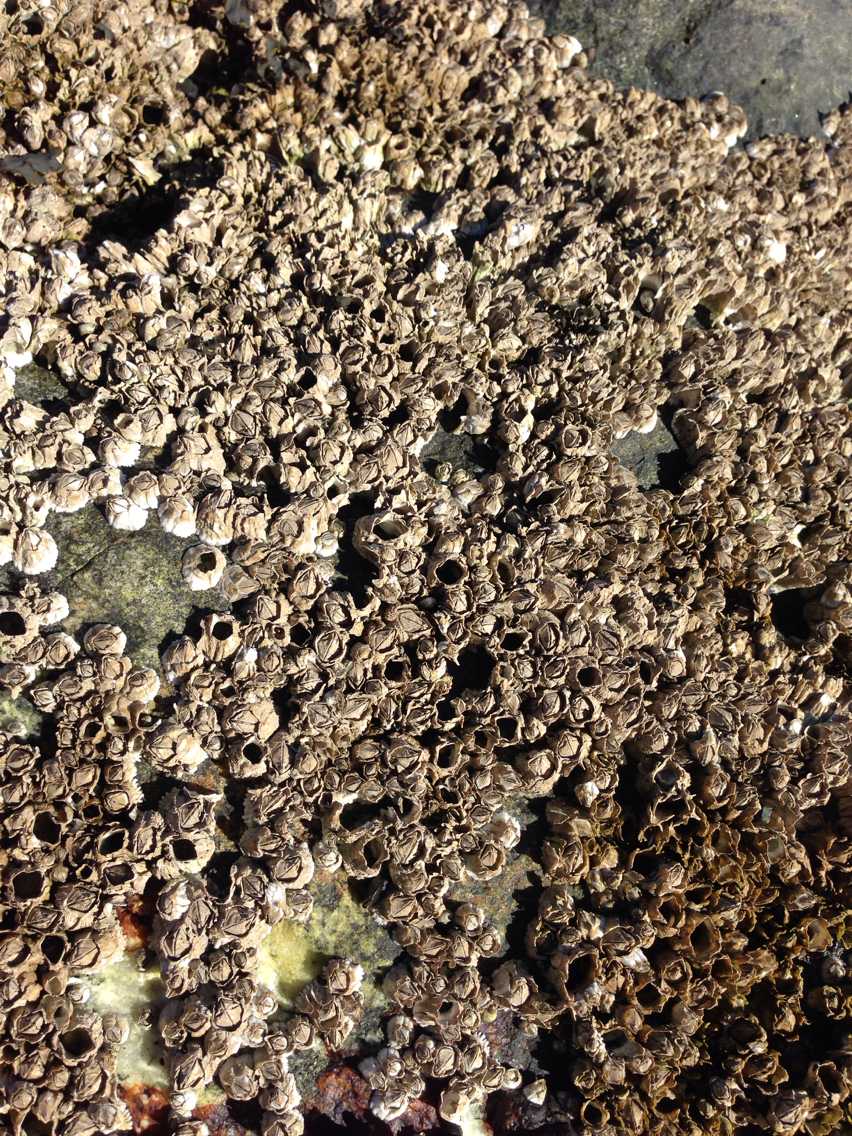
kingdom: Animalia
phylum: Arthropoda
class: Maxillopoda
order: Sessilia
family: Archaeobalanidae
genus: Semibalanus
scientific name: Semibalanus balanoides
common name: Acorn barnacle
